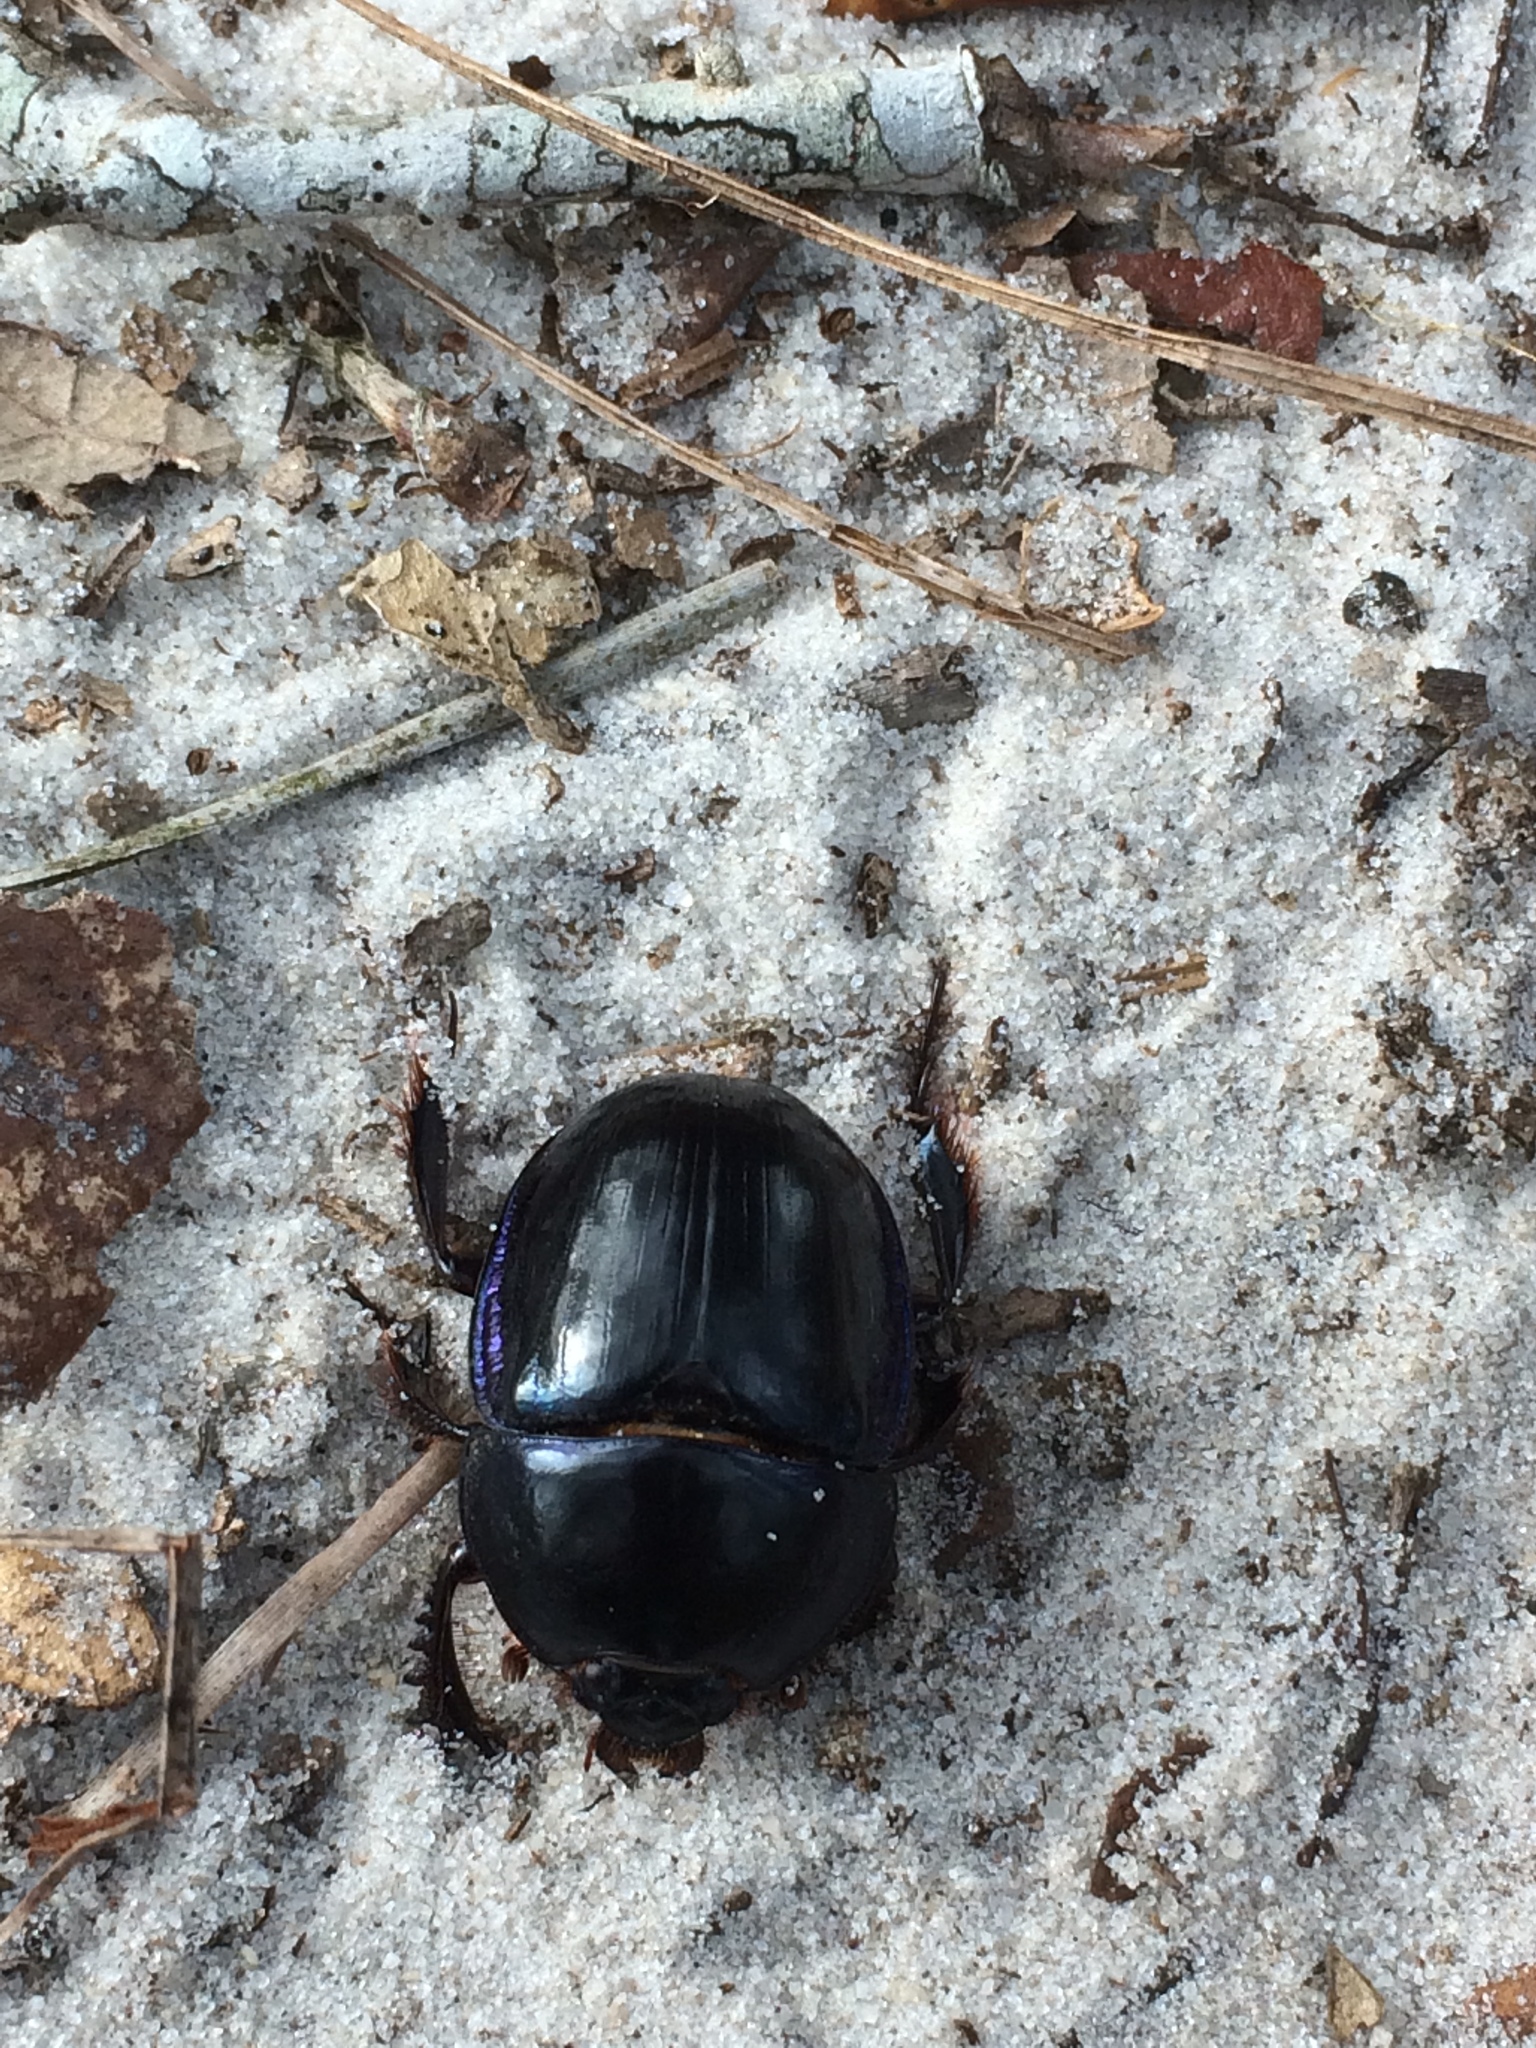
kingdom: Animalia
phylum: Arthropoda
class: Insecta
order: Coleoptera
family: Geotrupidae
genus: Peltotrupes
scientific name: Peltotrupes profundus
